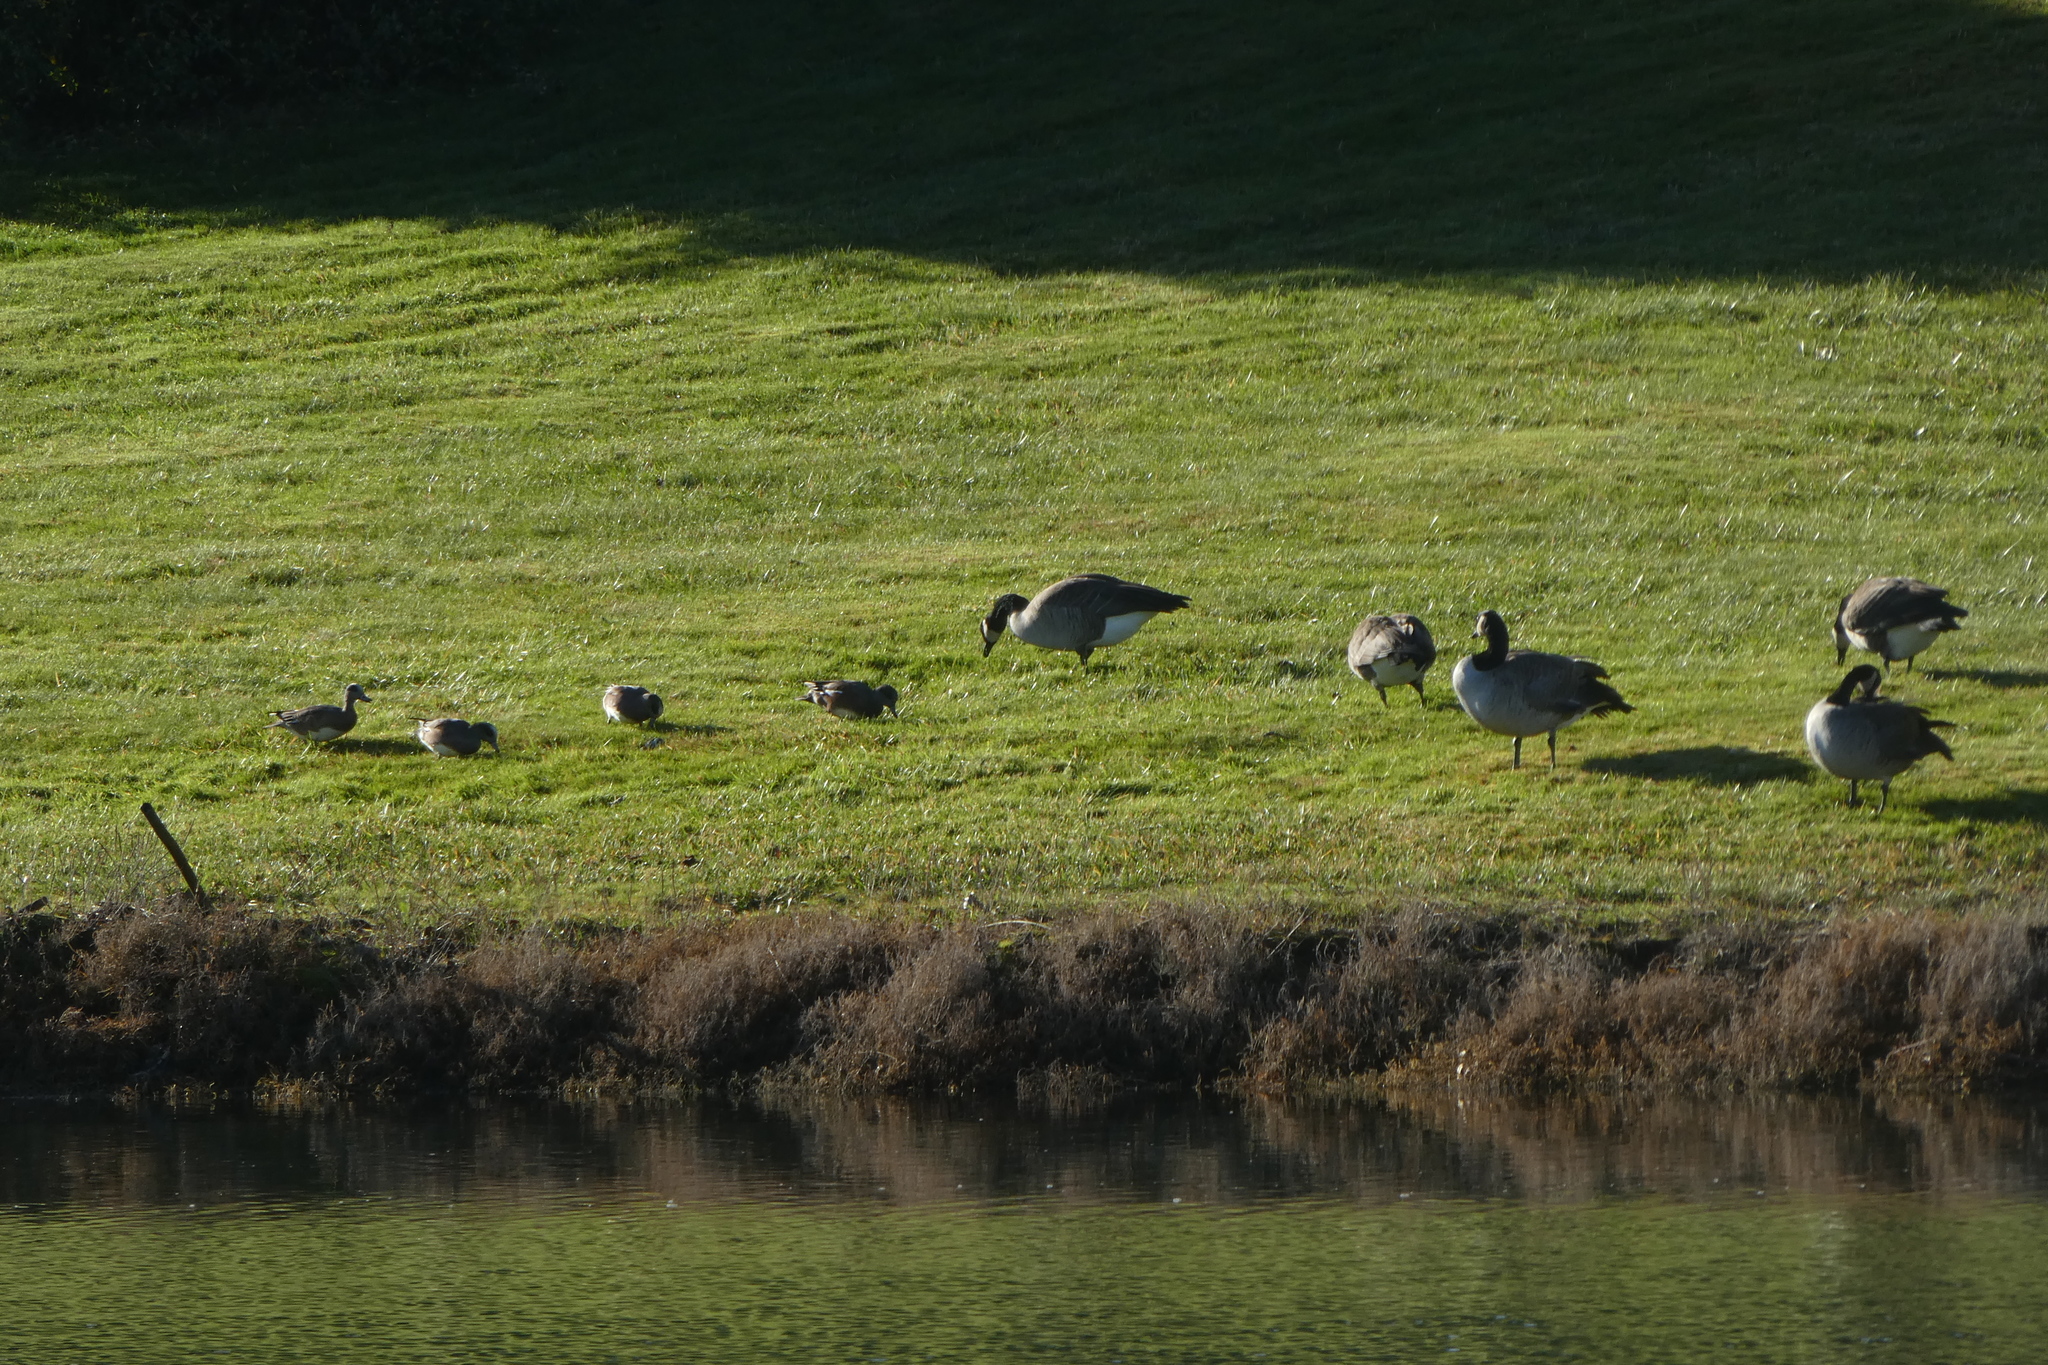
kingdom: Animalia
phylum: Chordata
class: Aves
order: Anseriformes
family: Anatidae
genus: Branta
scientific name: Branta canadensis
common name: Canada goose
